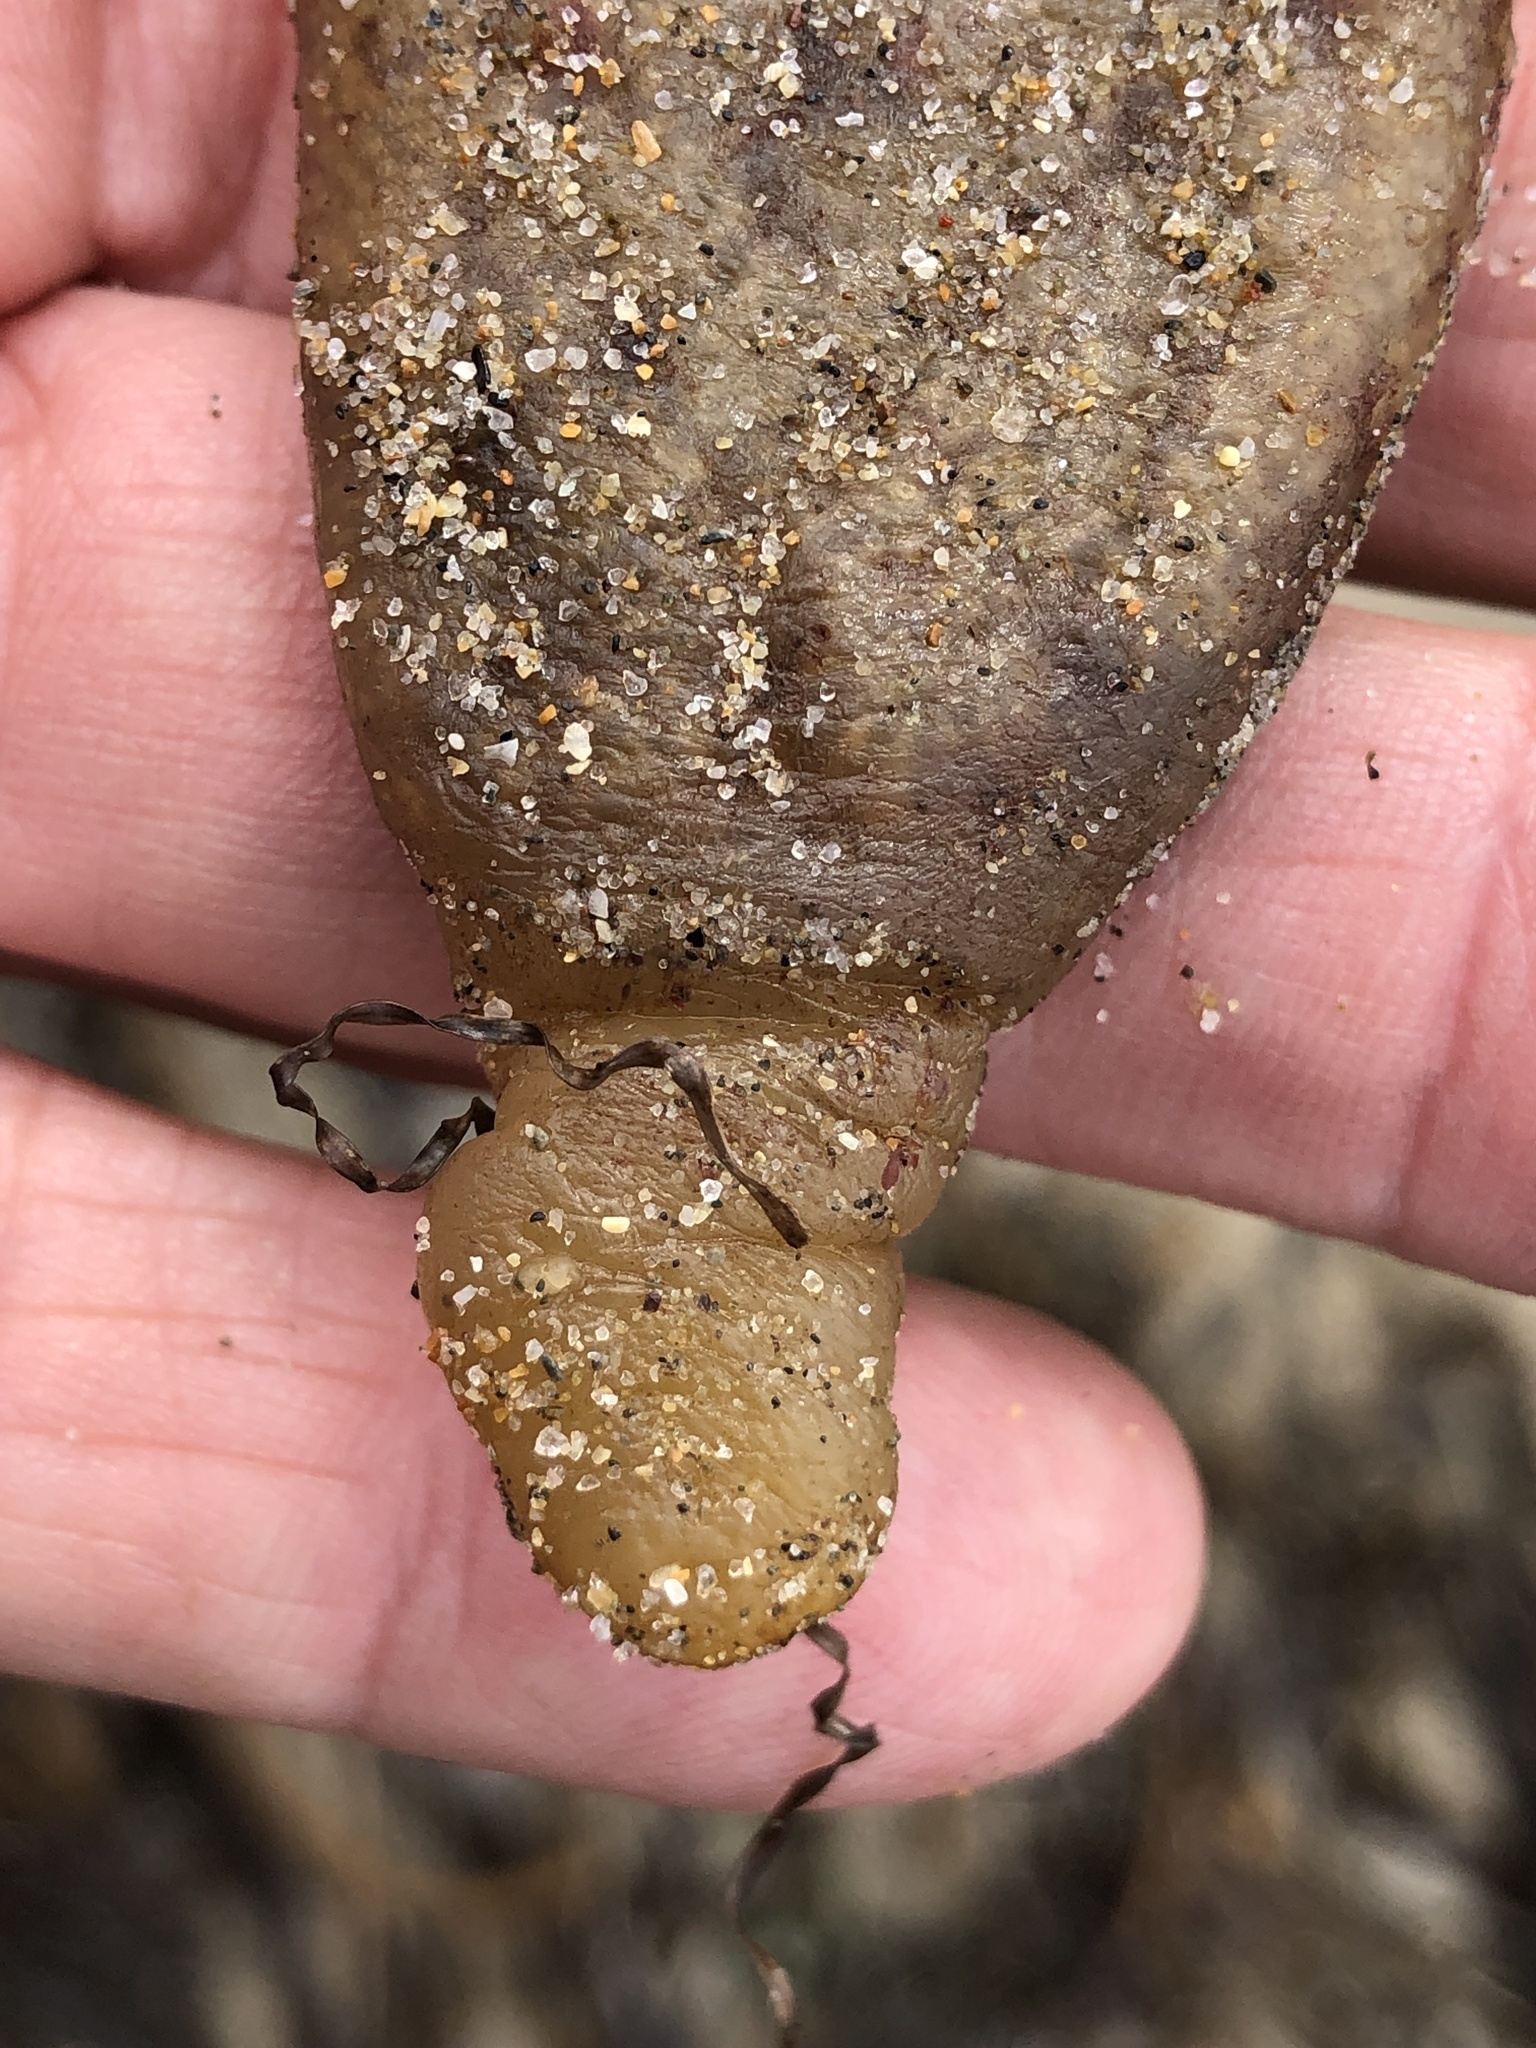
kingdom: Animalia
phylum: Chordata
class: Ascidiacea
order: Aplousobranchia
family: Polyclinidae
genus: Aplidium
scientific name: Aplidium californicum
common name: Sea pork
